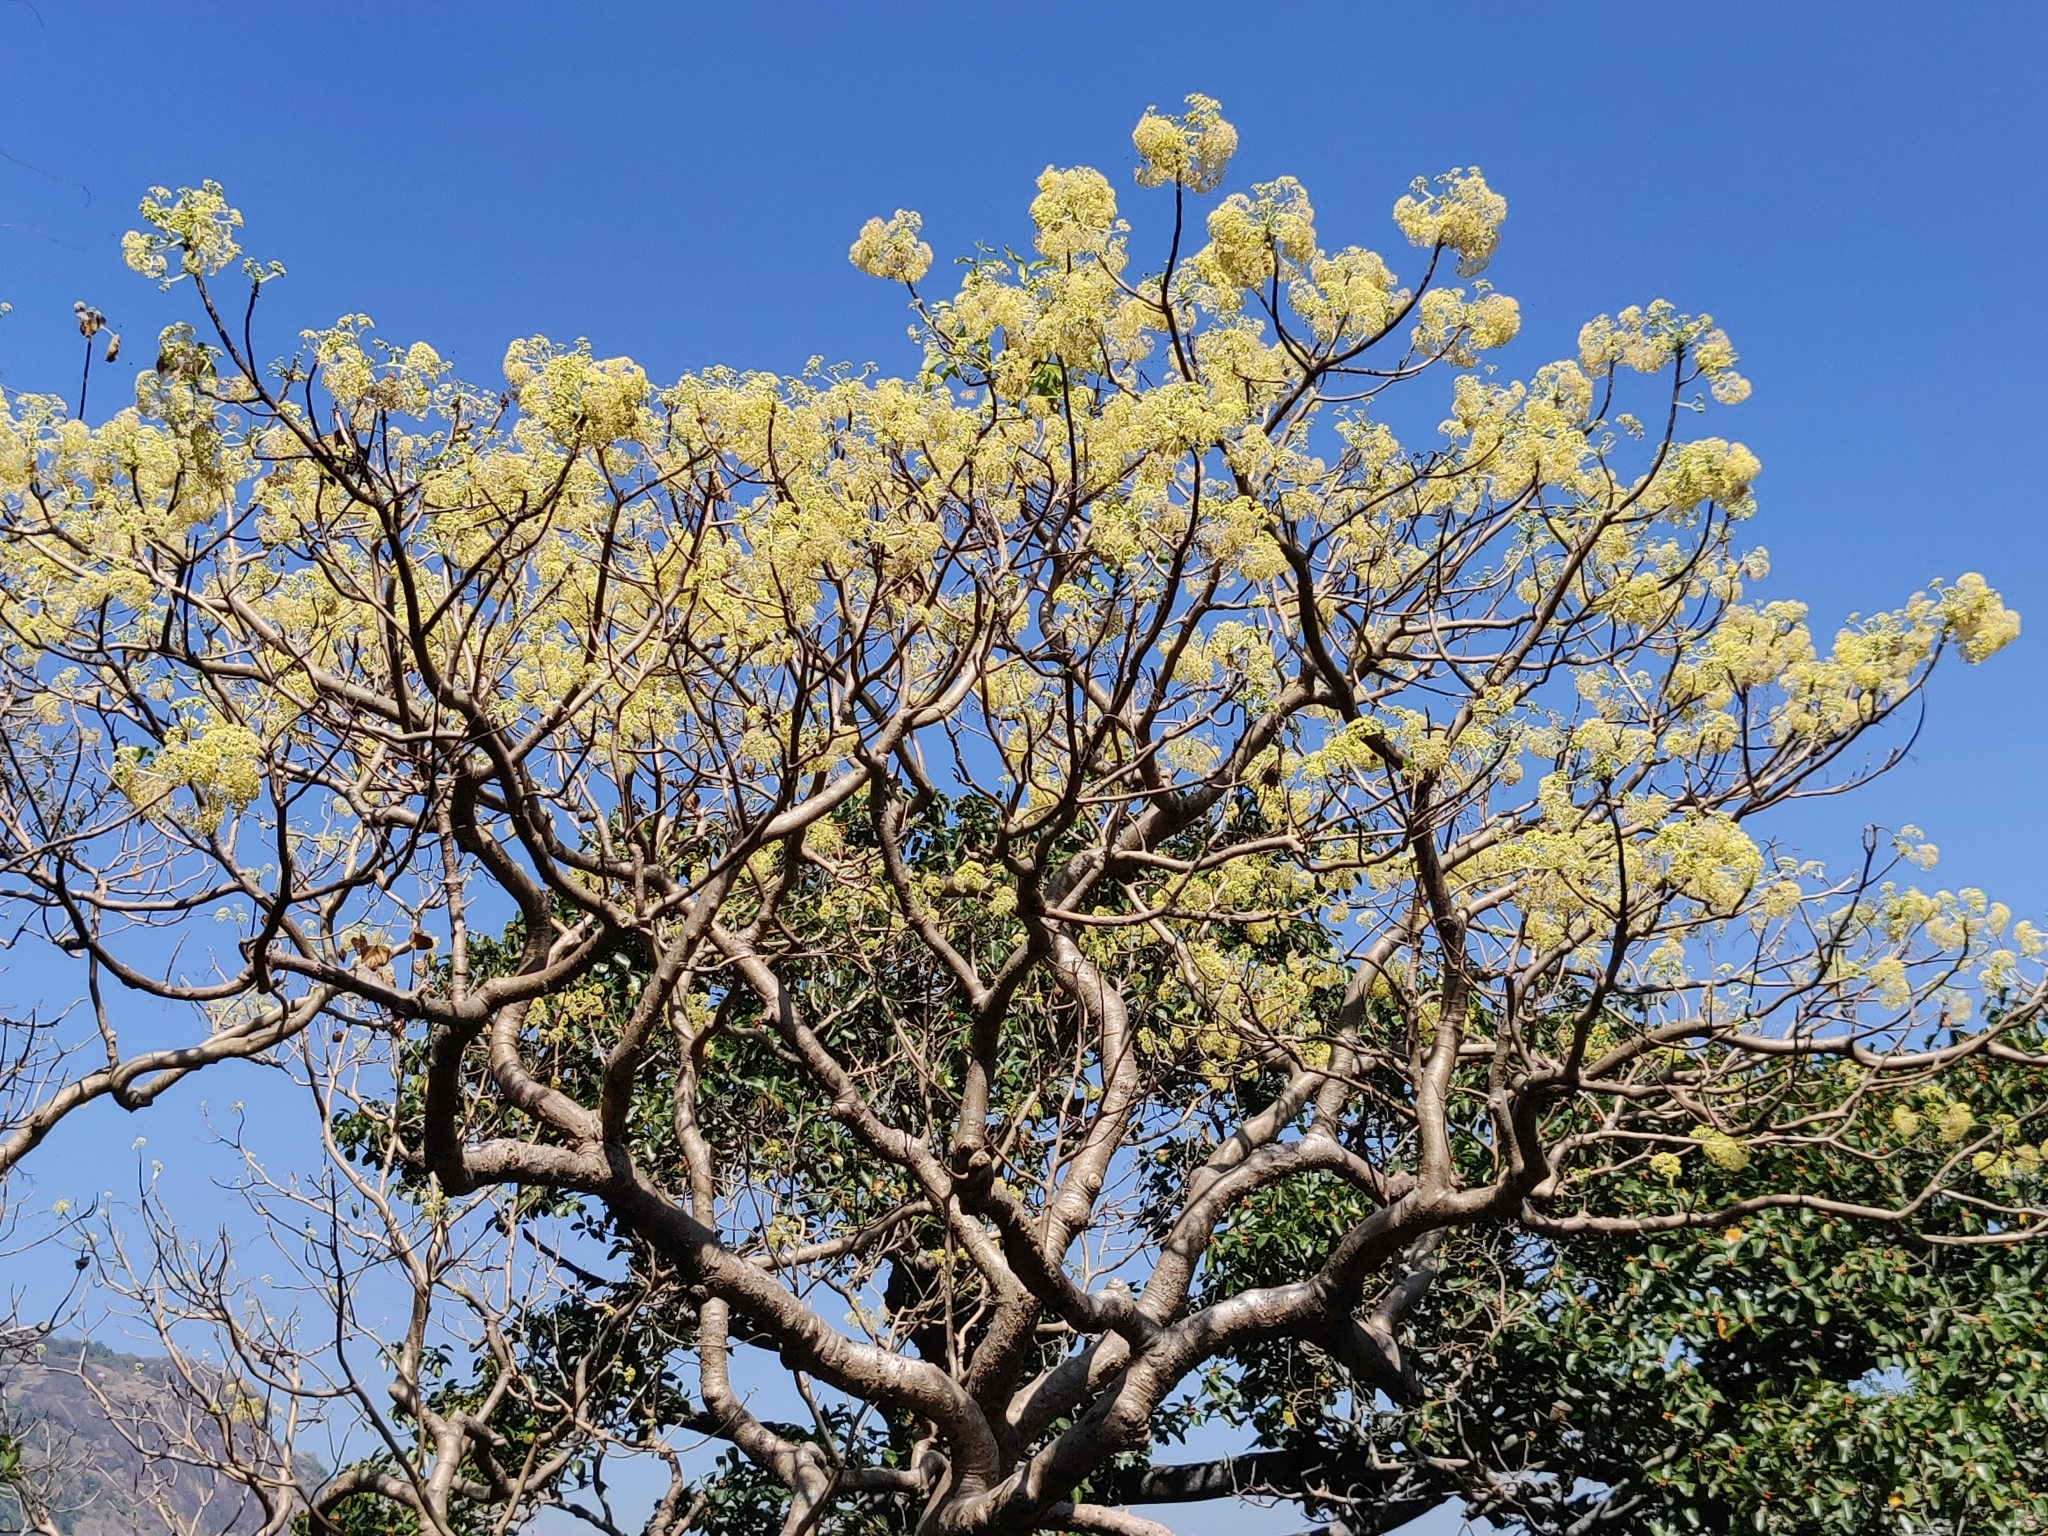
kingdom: Plantae
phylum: Tracheophyta
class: Magnoliopsida
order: Laurales
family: Hernandiaceae
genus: Gyrocarpus
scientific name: Gyrocarpus americanus
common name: Gyro damson
